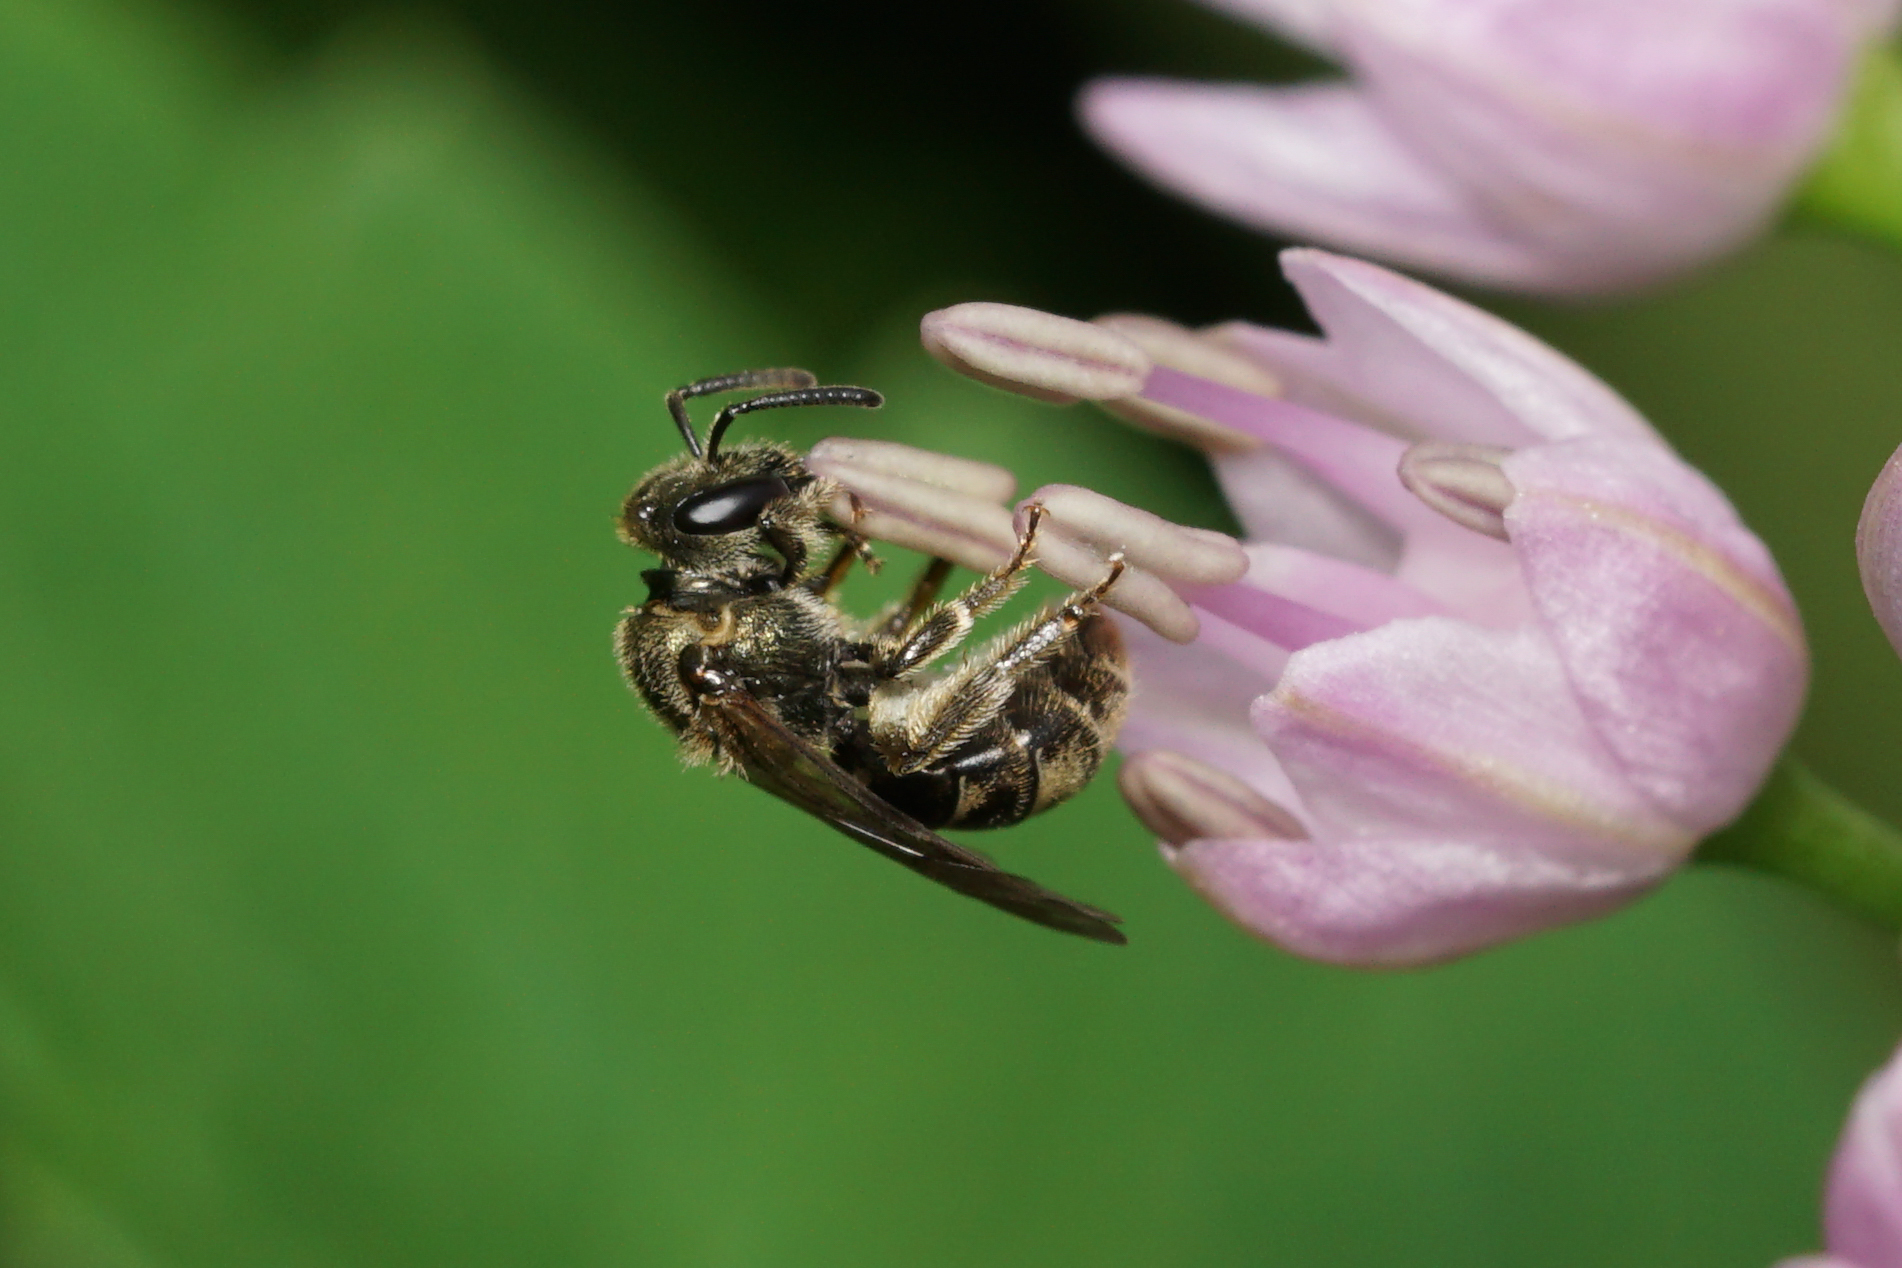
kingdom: Animalia
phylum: Arthropoda
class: Insecta
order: Hymenoptera
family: Halictidae
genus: Dialictus
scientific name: Dialictus
